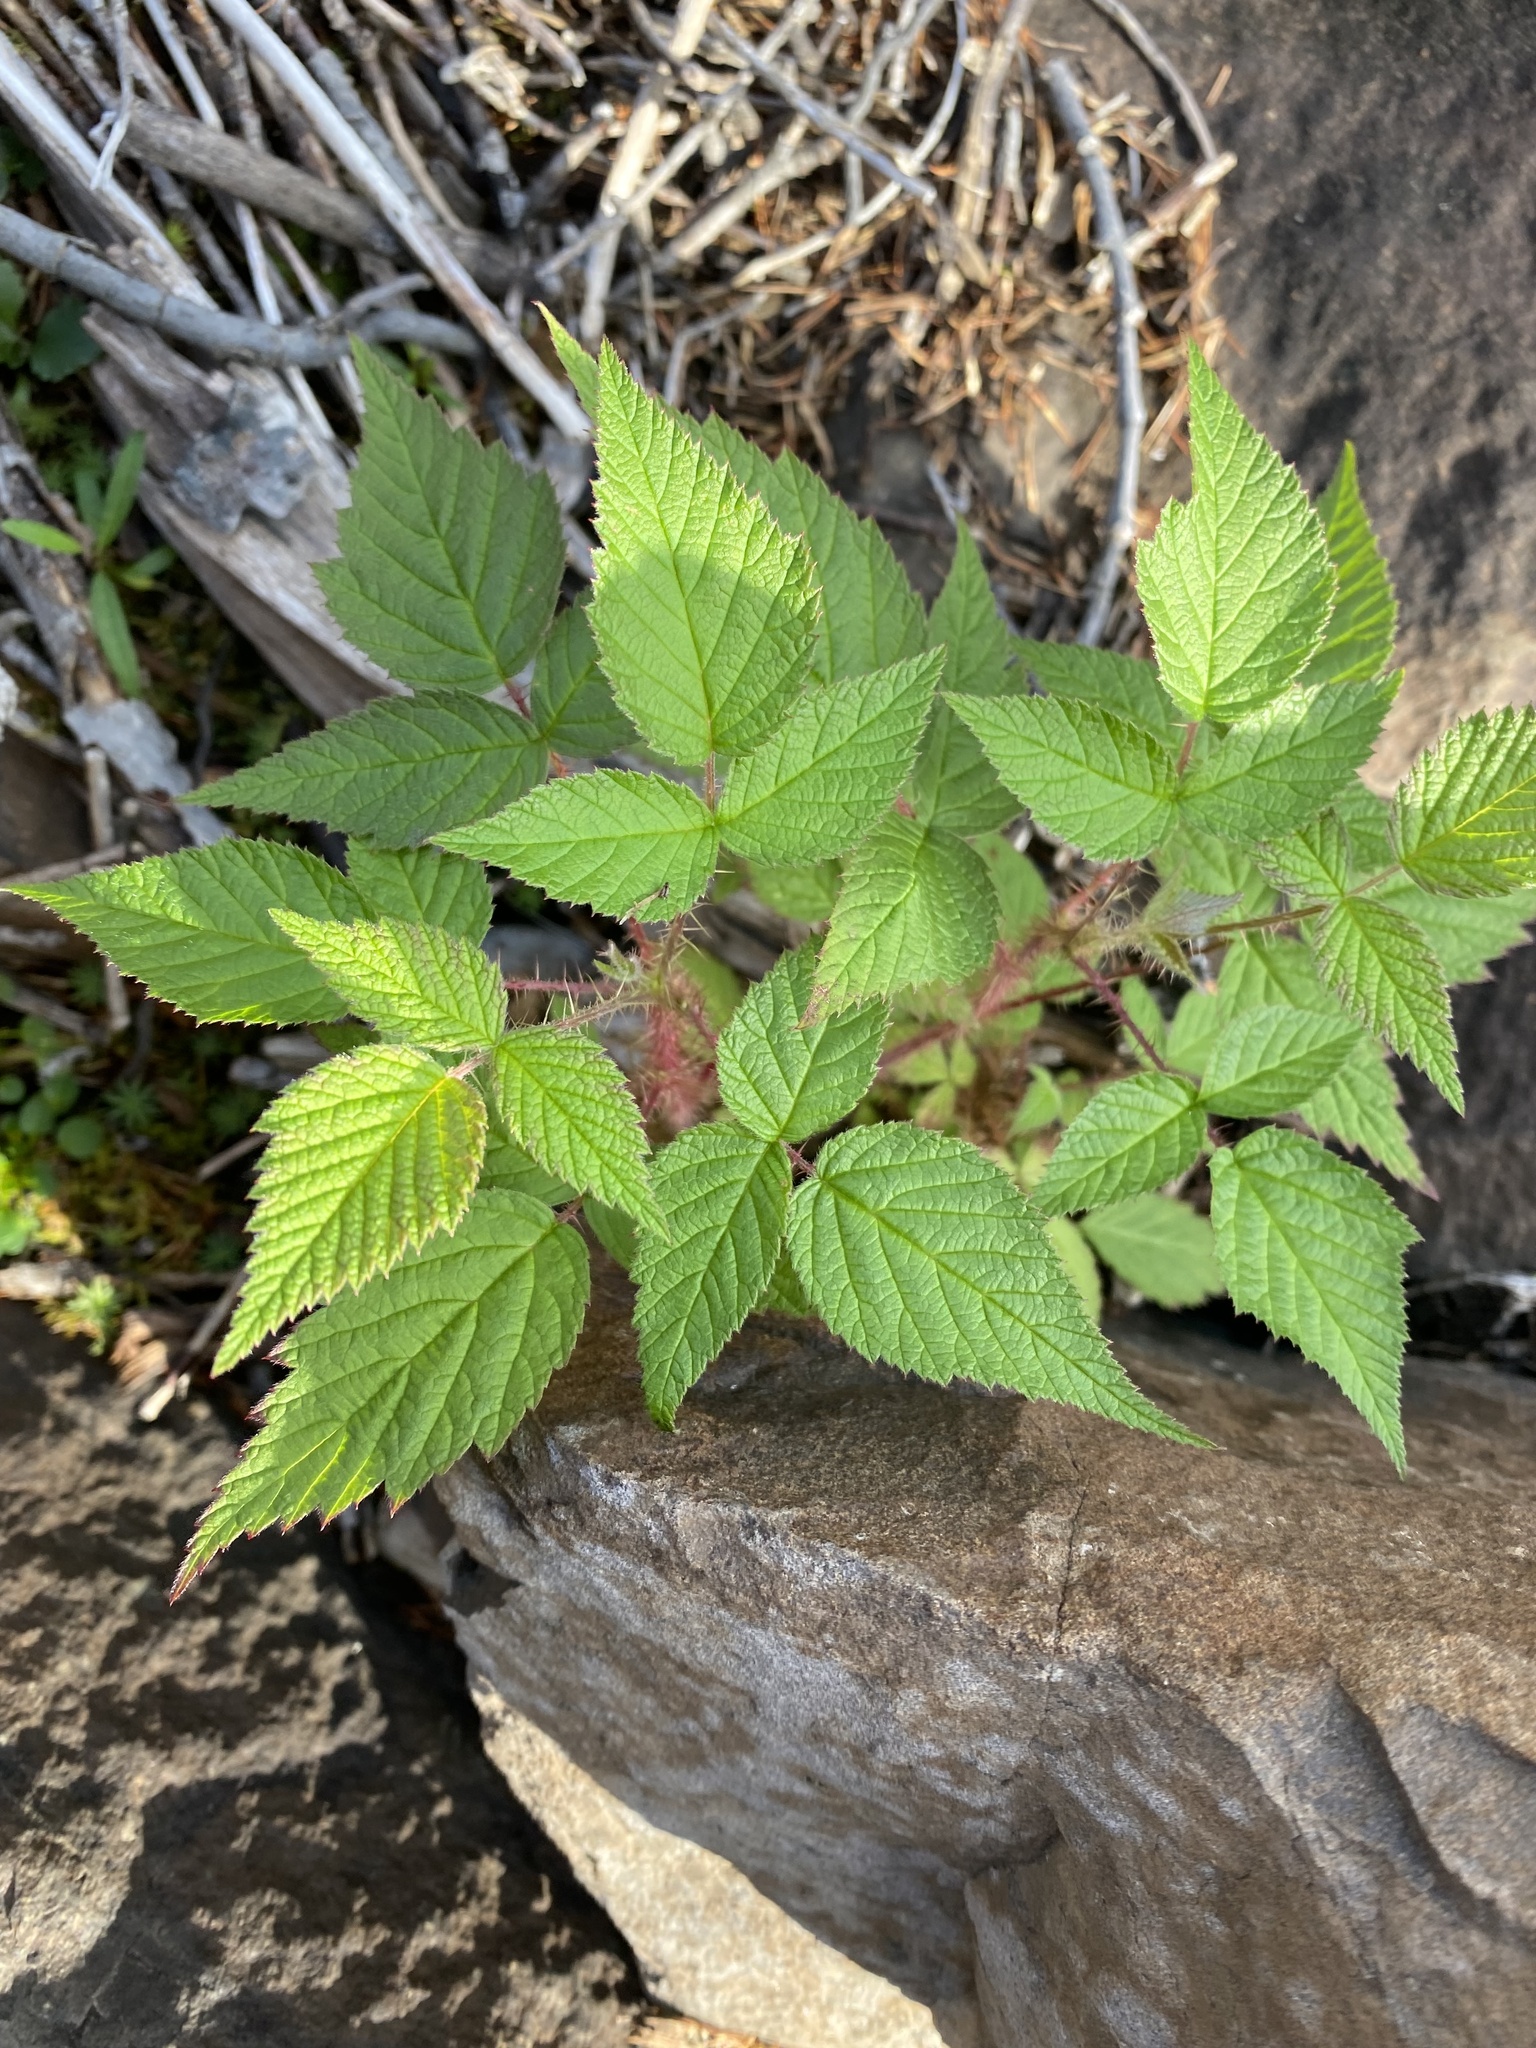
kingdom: Plantae
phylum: Tracheophyta
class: Magnoliopsida
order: Rosales
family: Rosaceae
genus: Rubus
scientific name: Rubus sachalinensis
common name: Red raspberry
